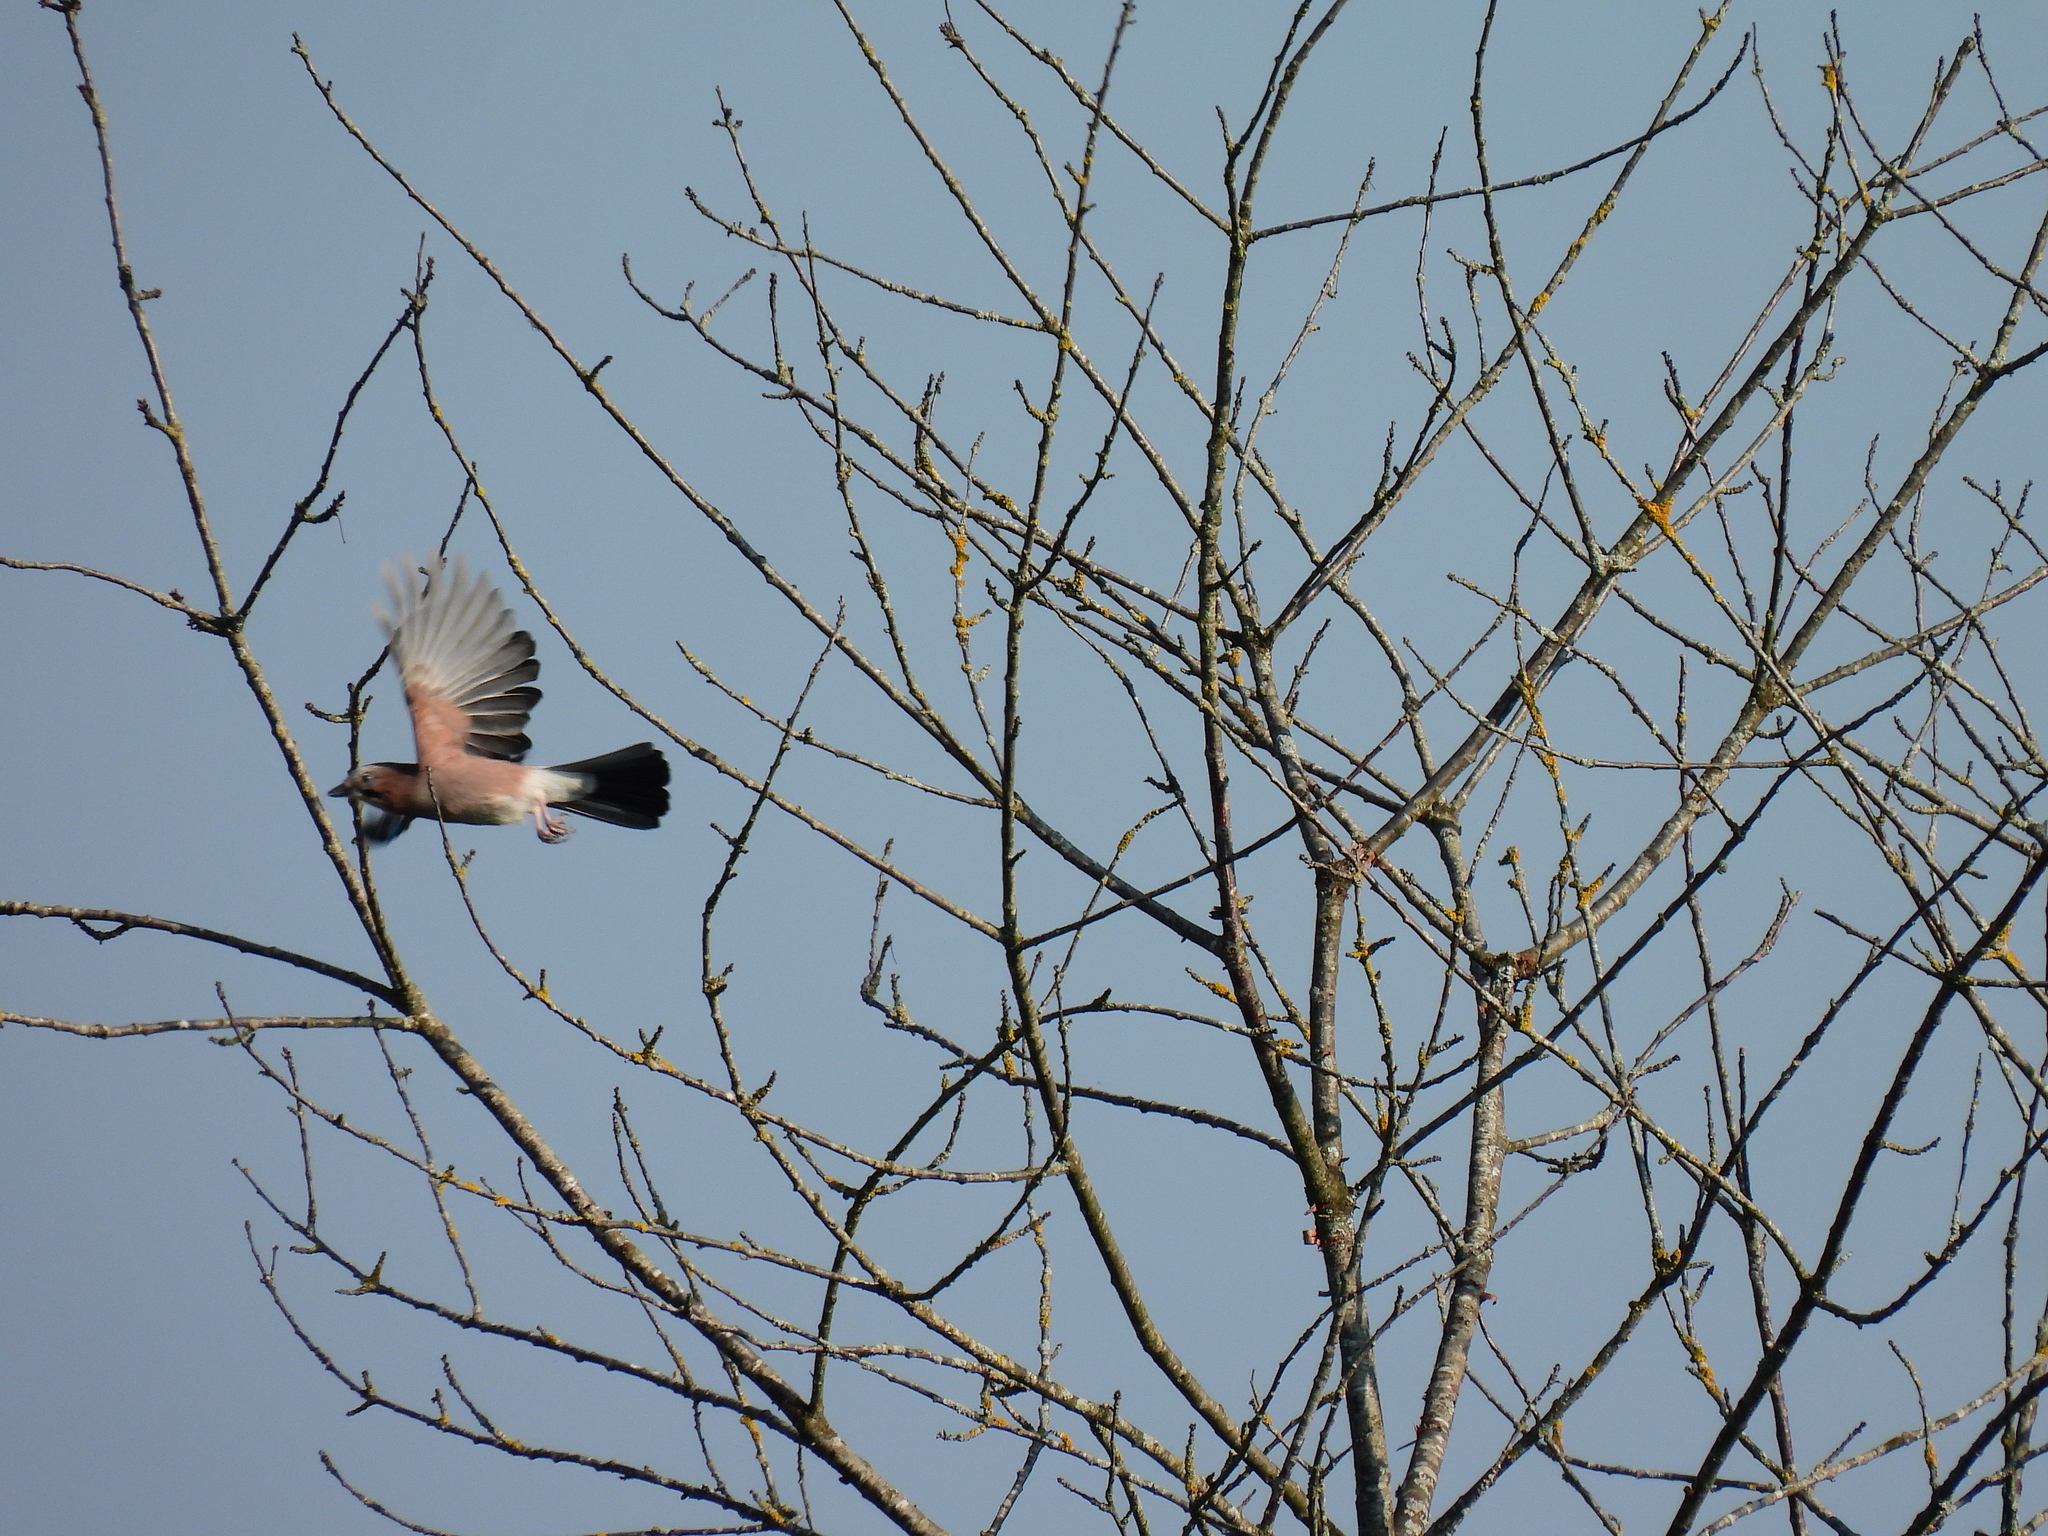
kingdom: Animalia
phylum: Chordata
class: Aves
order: Passeriformes
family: Corvidae
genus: Garrulus
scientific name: Garrulus glandarius
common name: Eurasian jay
